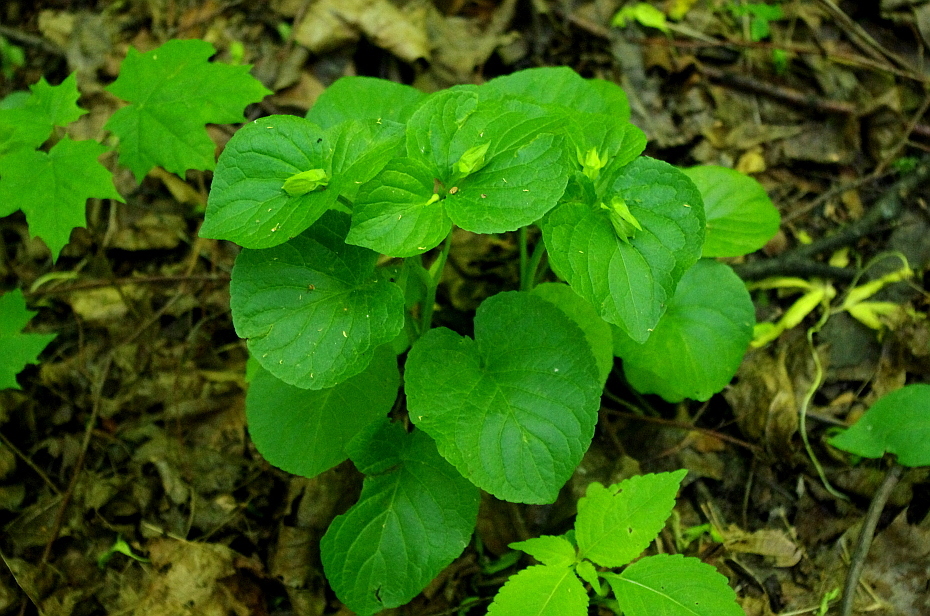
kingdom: Plantae
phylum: Tracheophyta
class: Magnoliopsida
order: Malpighiales
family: Violaceae
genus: Viola
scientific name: Viola mirabilis
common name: Wonder violet
